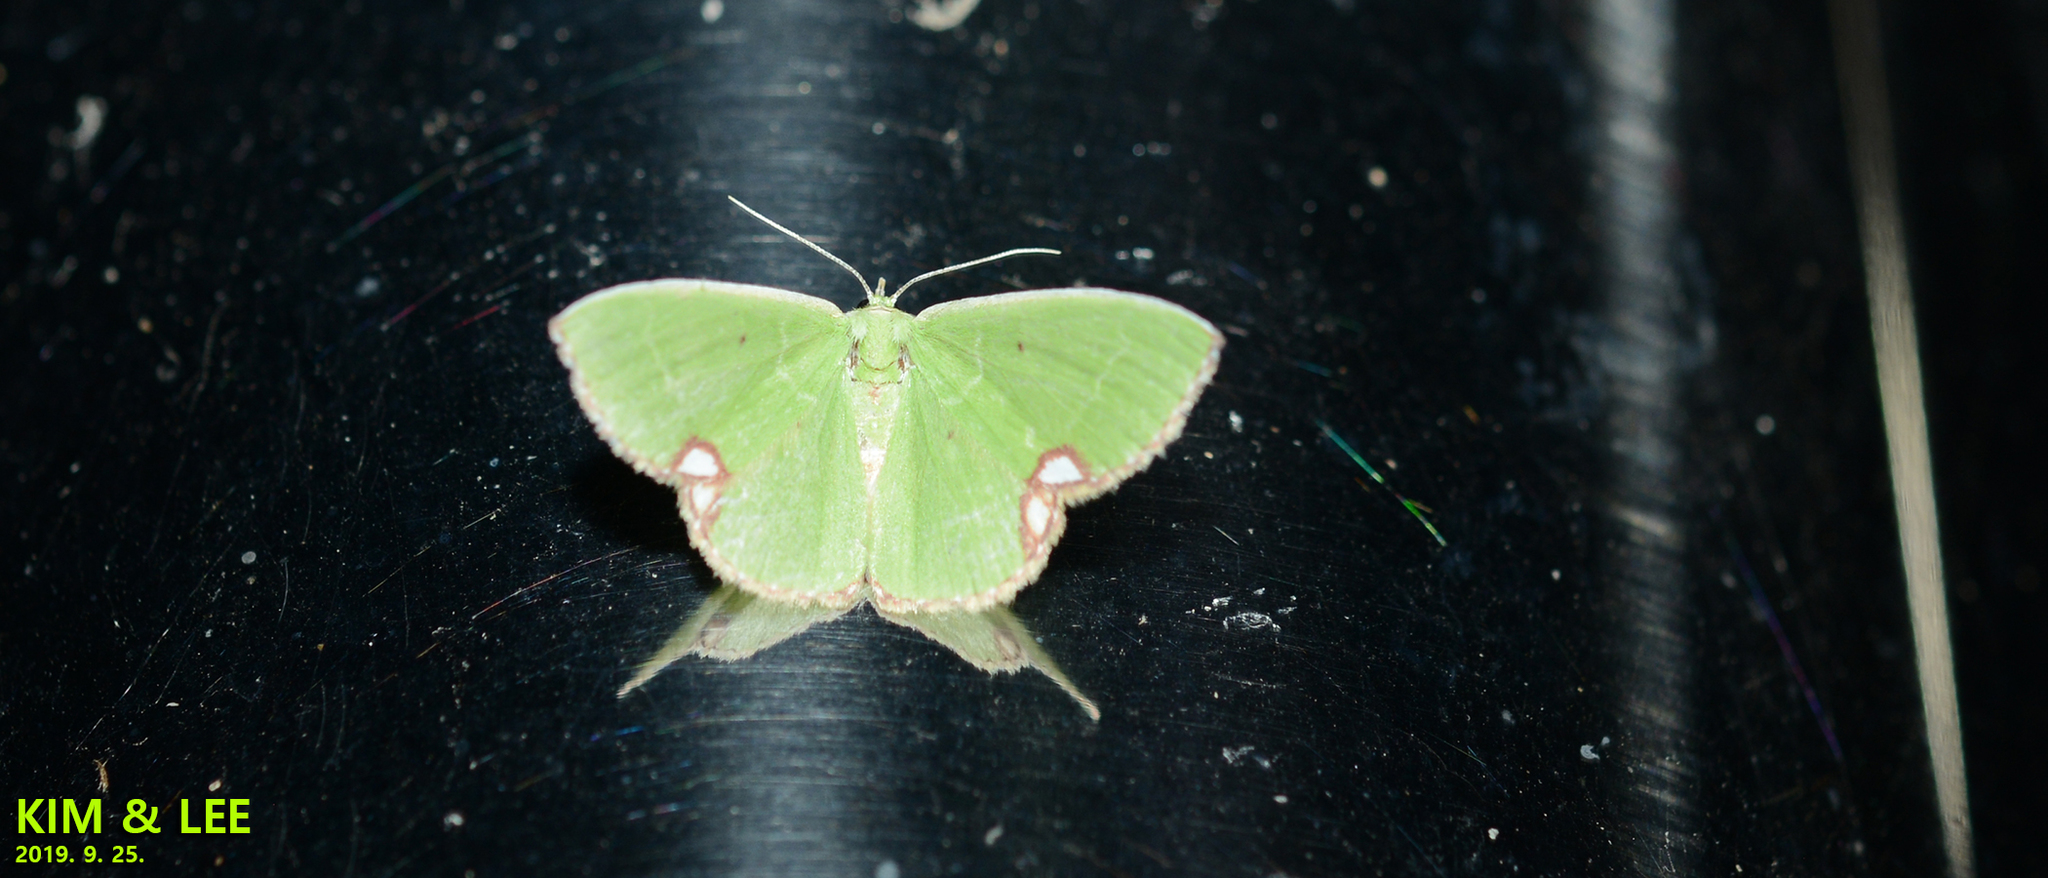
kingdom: Animalia
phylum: Arthropoda
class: Insecta
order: Lepidoptera
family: Geometridae
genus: Comibaena
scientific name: Comibaena procumbaria
